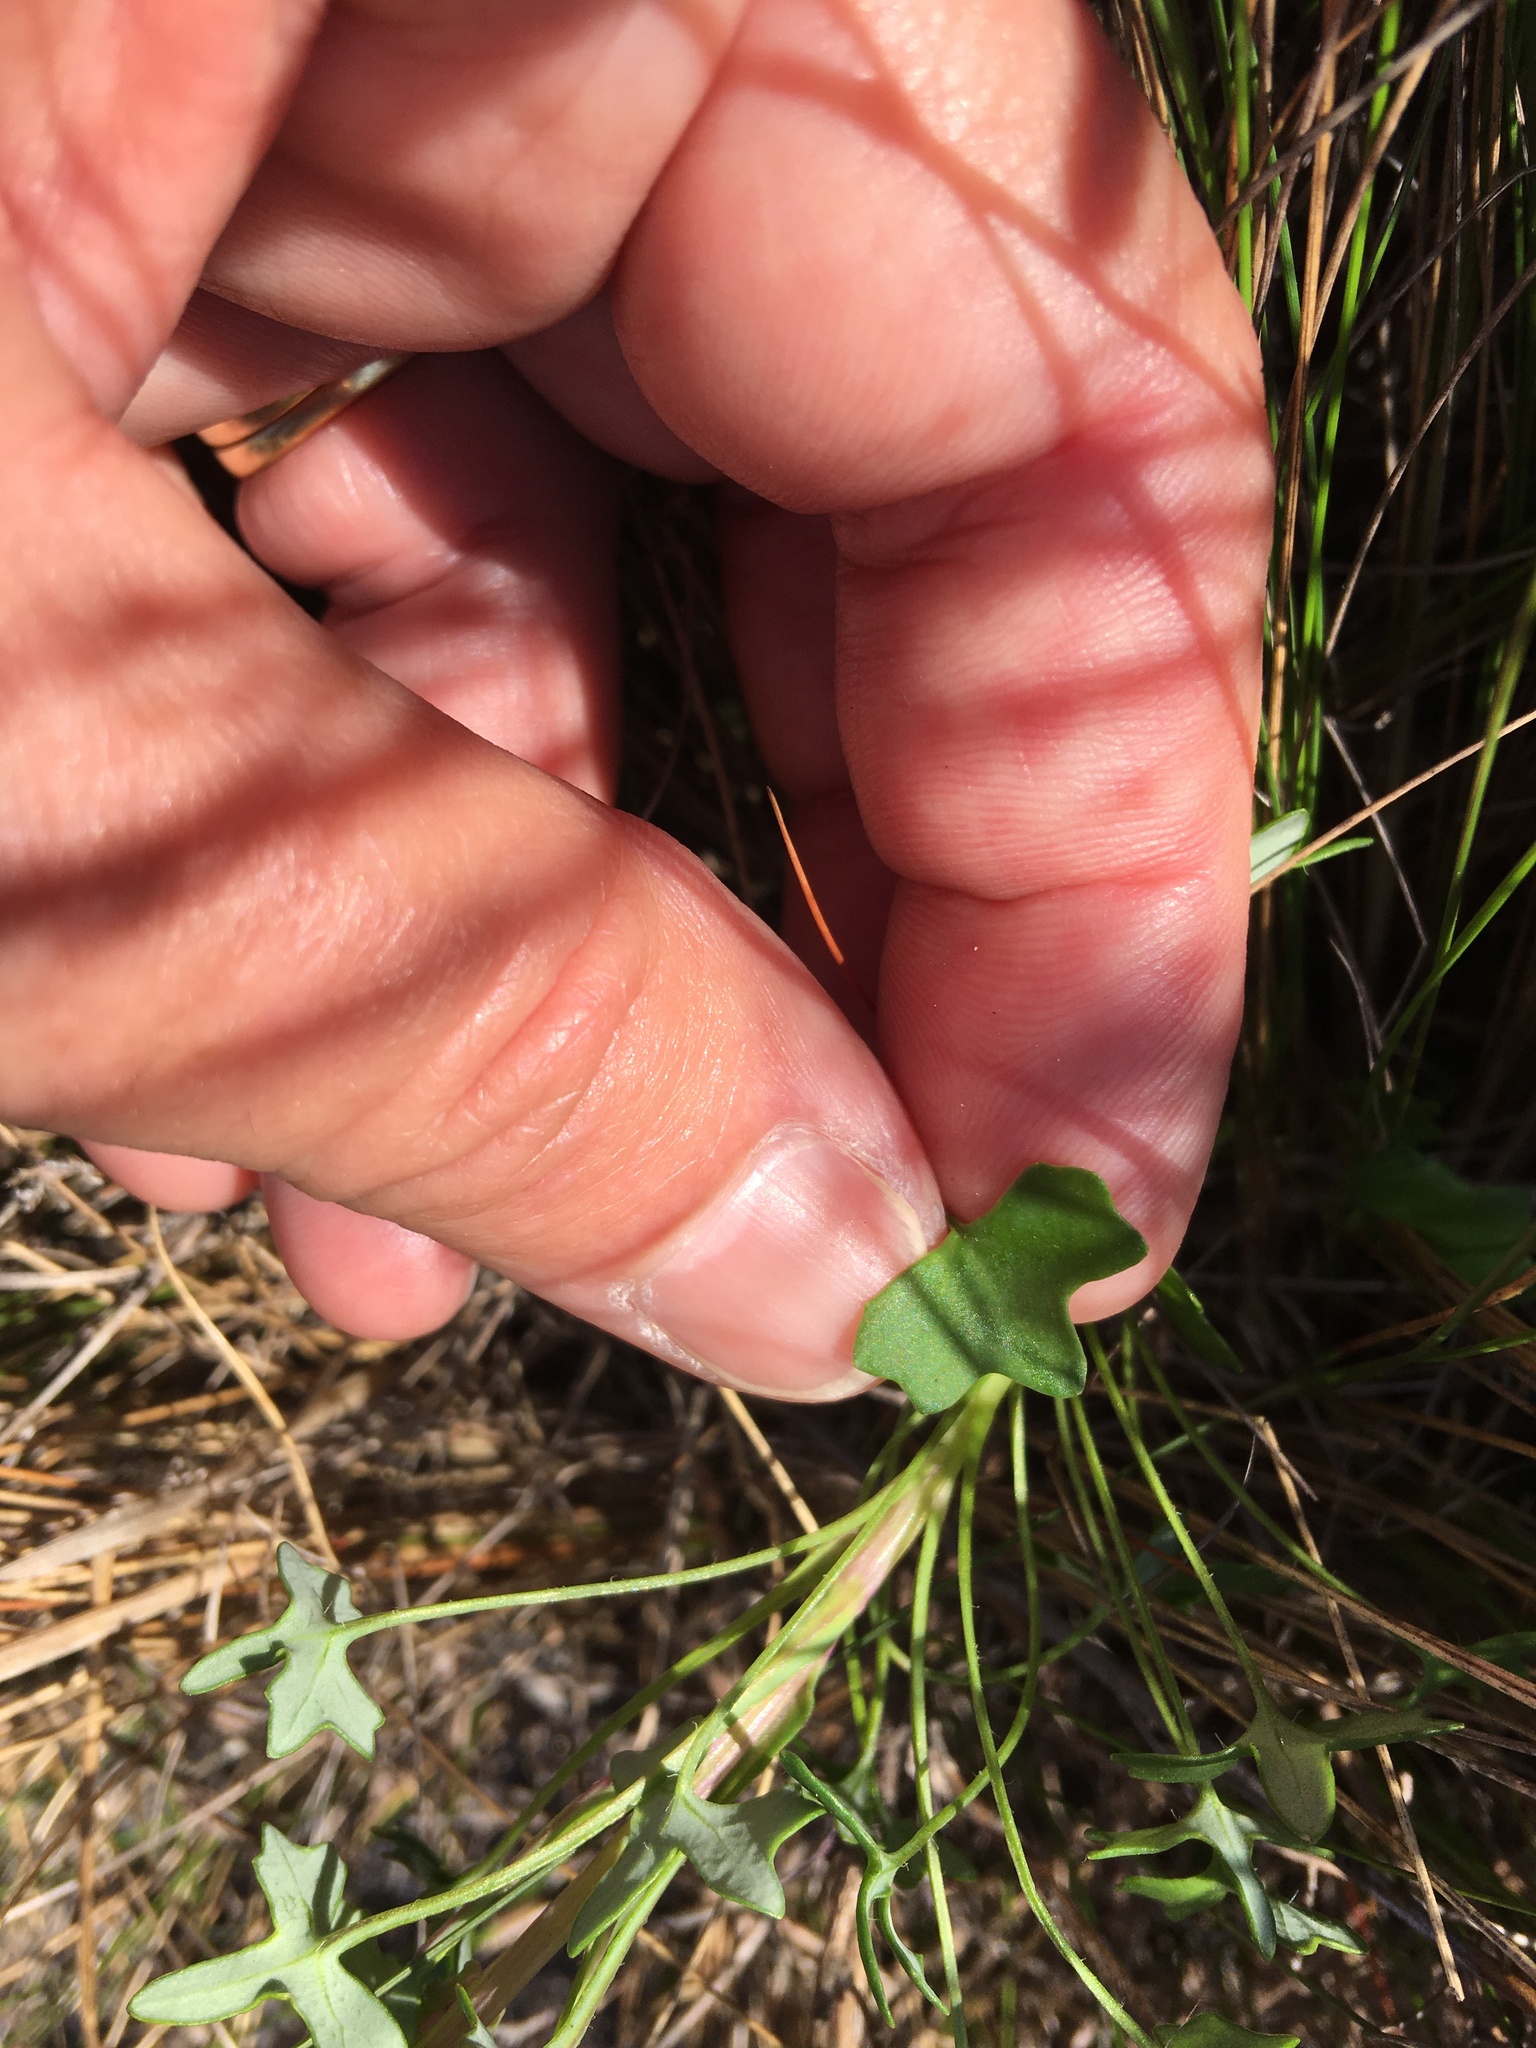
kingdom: Plantae
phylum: Tracheophyta
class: Magnoliopsida
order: Asterales
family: Asteraceae
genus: Senecio
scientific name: Senecio hastifolius
